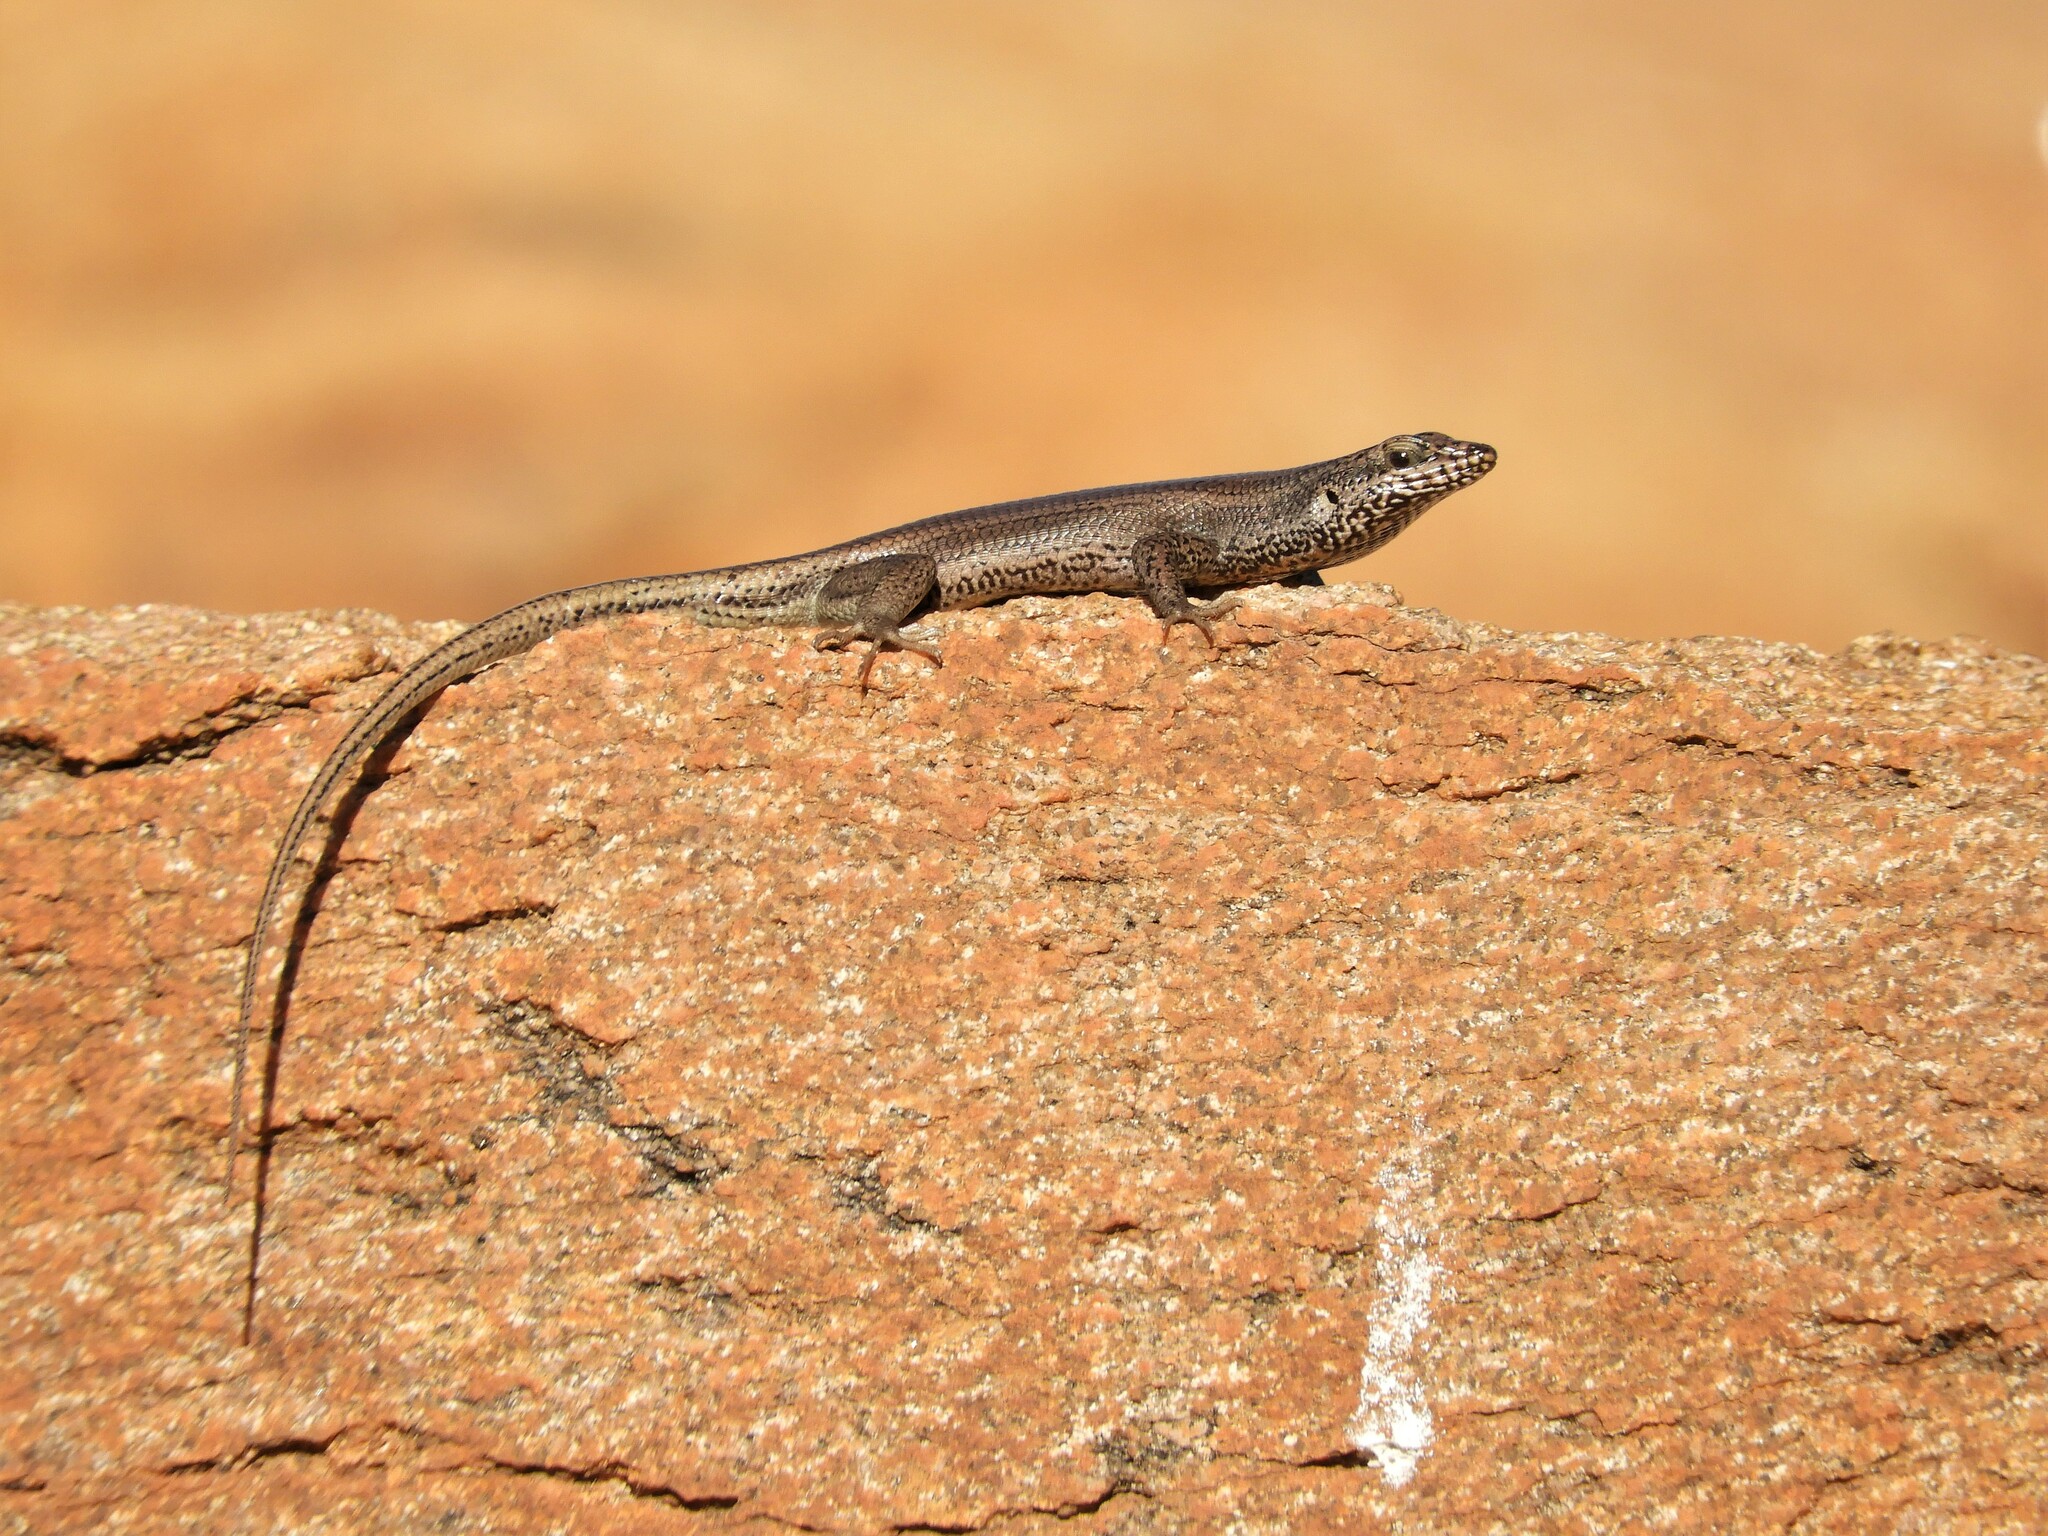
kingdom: Animalia
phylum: Chordata
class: Squamata
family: Scincidae
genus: Trachylepis
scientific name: Trachylepis sulcata
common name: Western rock skink
